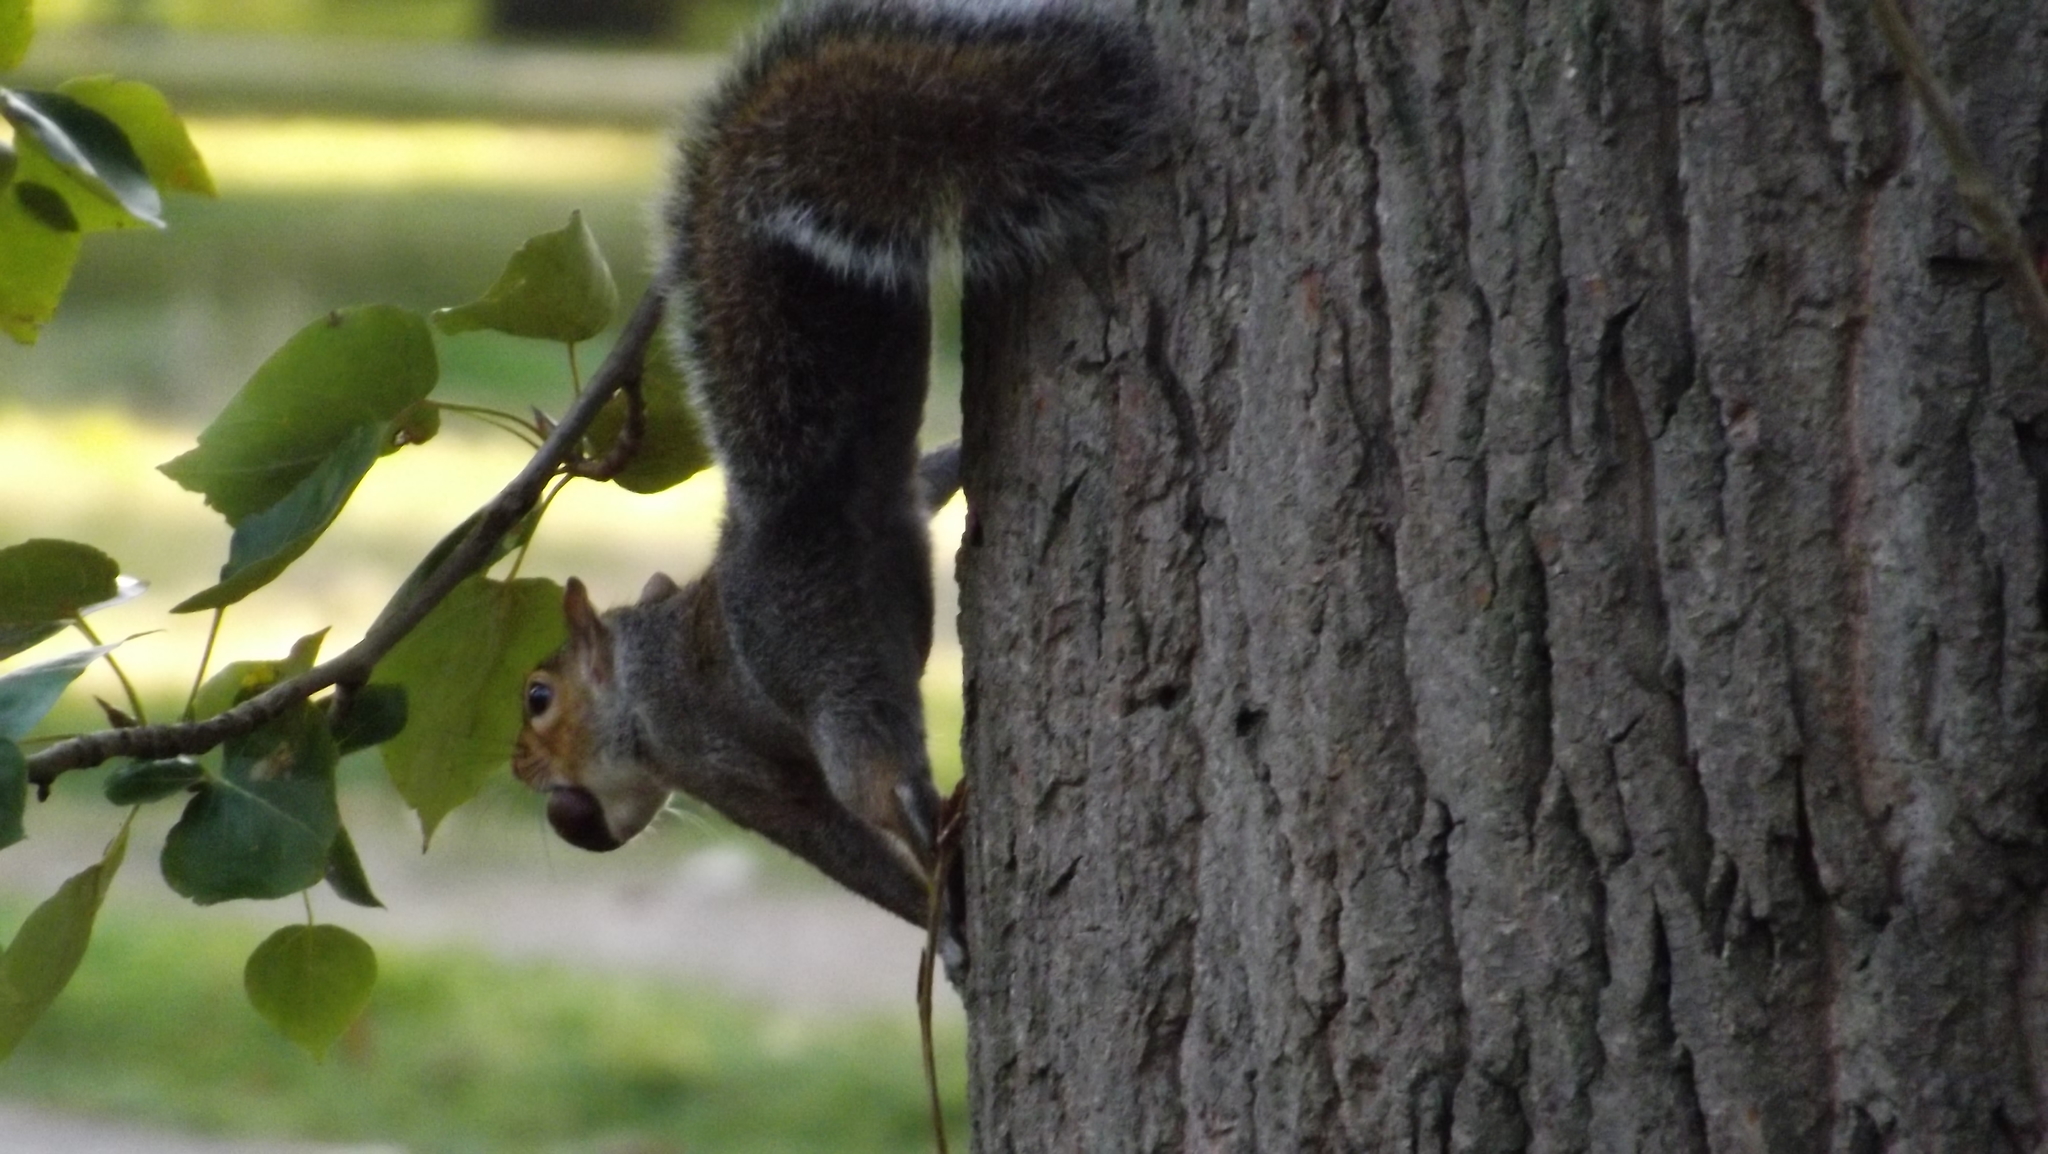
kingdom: Animalia
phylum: Chordata
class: Mammalia
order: Rodentia
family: Sciuridae
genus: Sciurus
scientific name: Sciurus carolinensis
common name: Eastern gray squirrel
